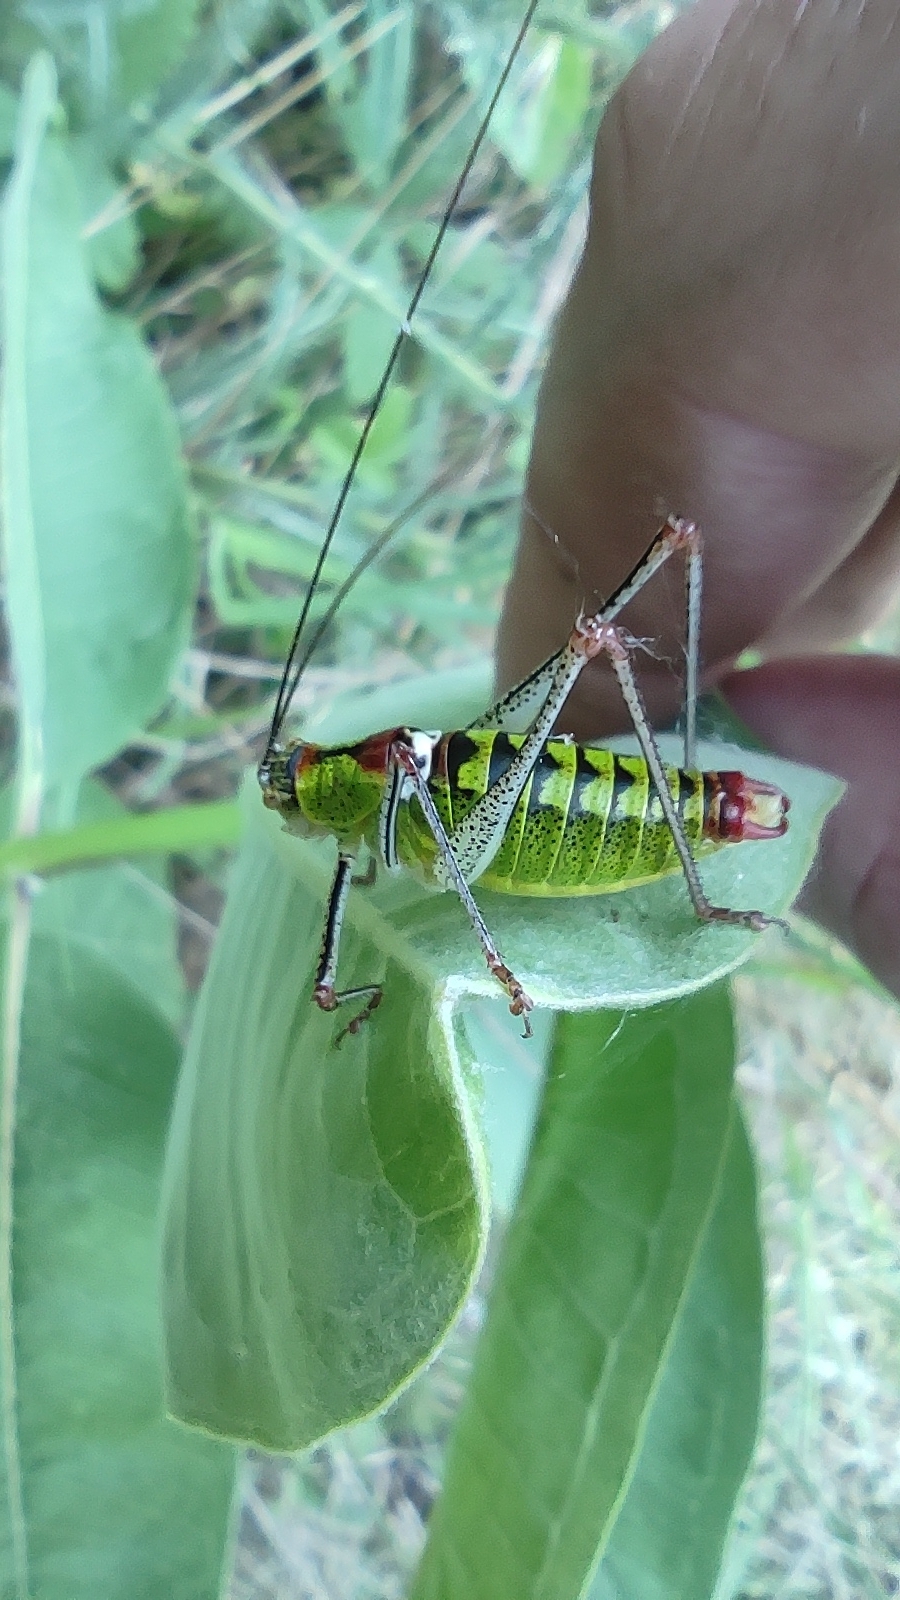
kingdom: Animalia
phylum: Arthropoda
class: Insecta
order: Orthoptera
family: Tettigoniidae
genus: Poecilimon
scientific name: Poecilimon thoracicus
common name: Bellied bright bush-cricket
